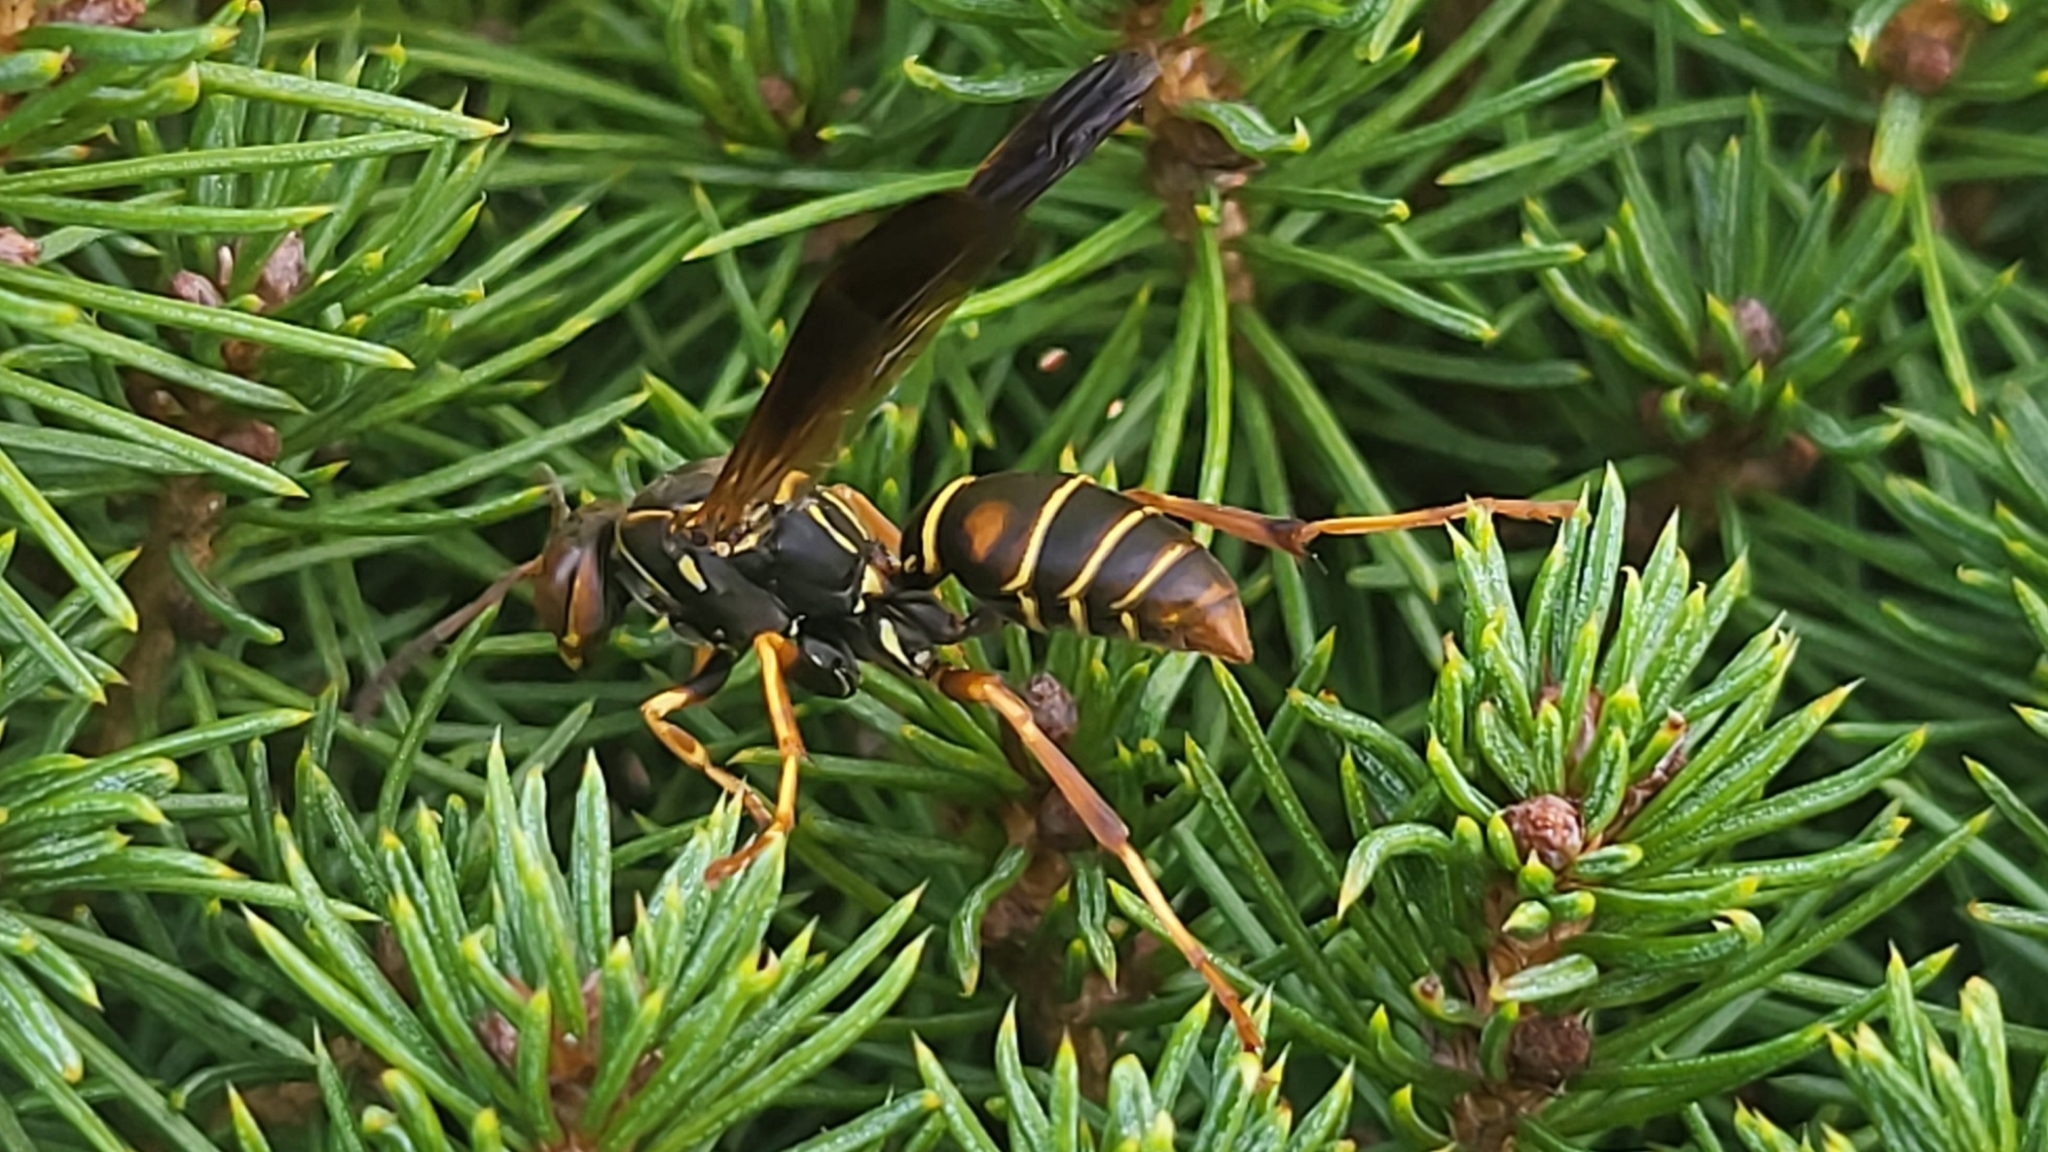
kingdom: Animalia
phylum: Arthropoda
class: Insecta
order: Hymenoptera
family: Eumenidae
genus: Polistes
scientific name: Polistes fuscatus
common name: Dark paper wasp
